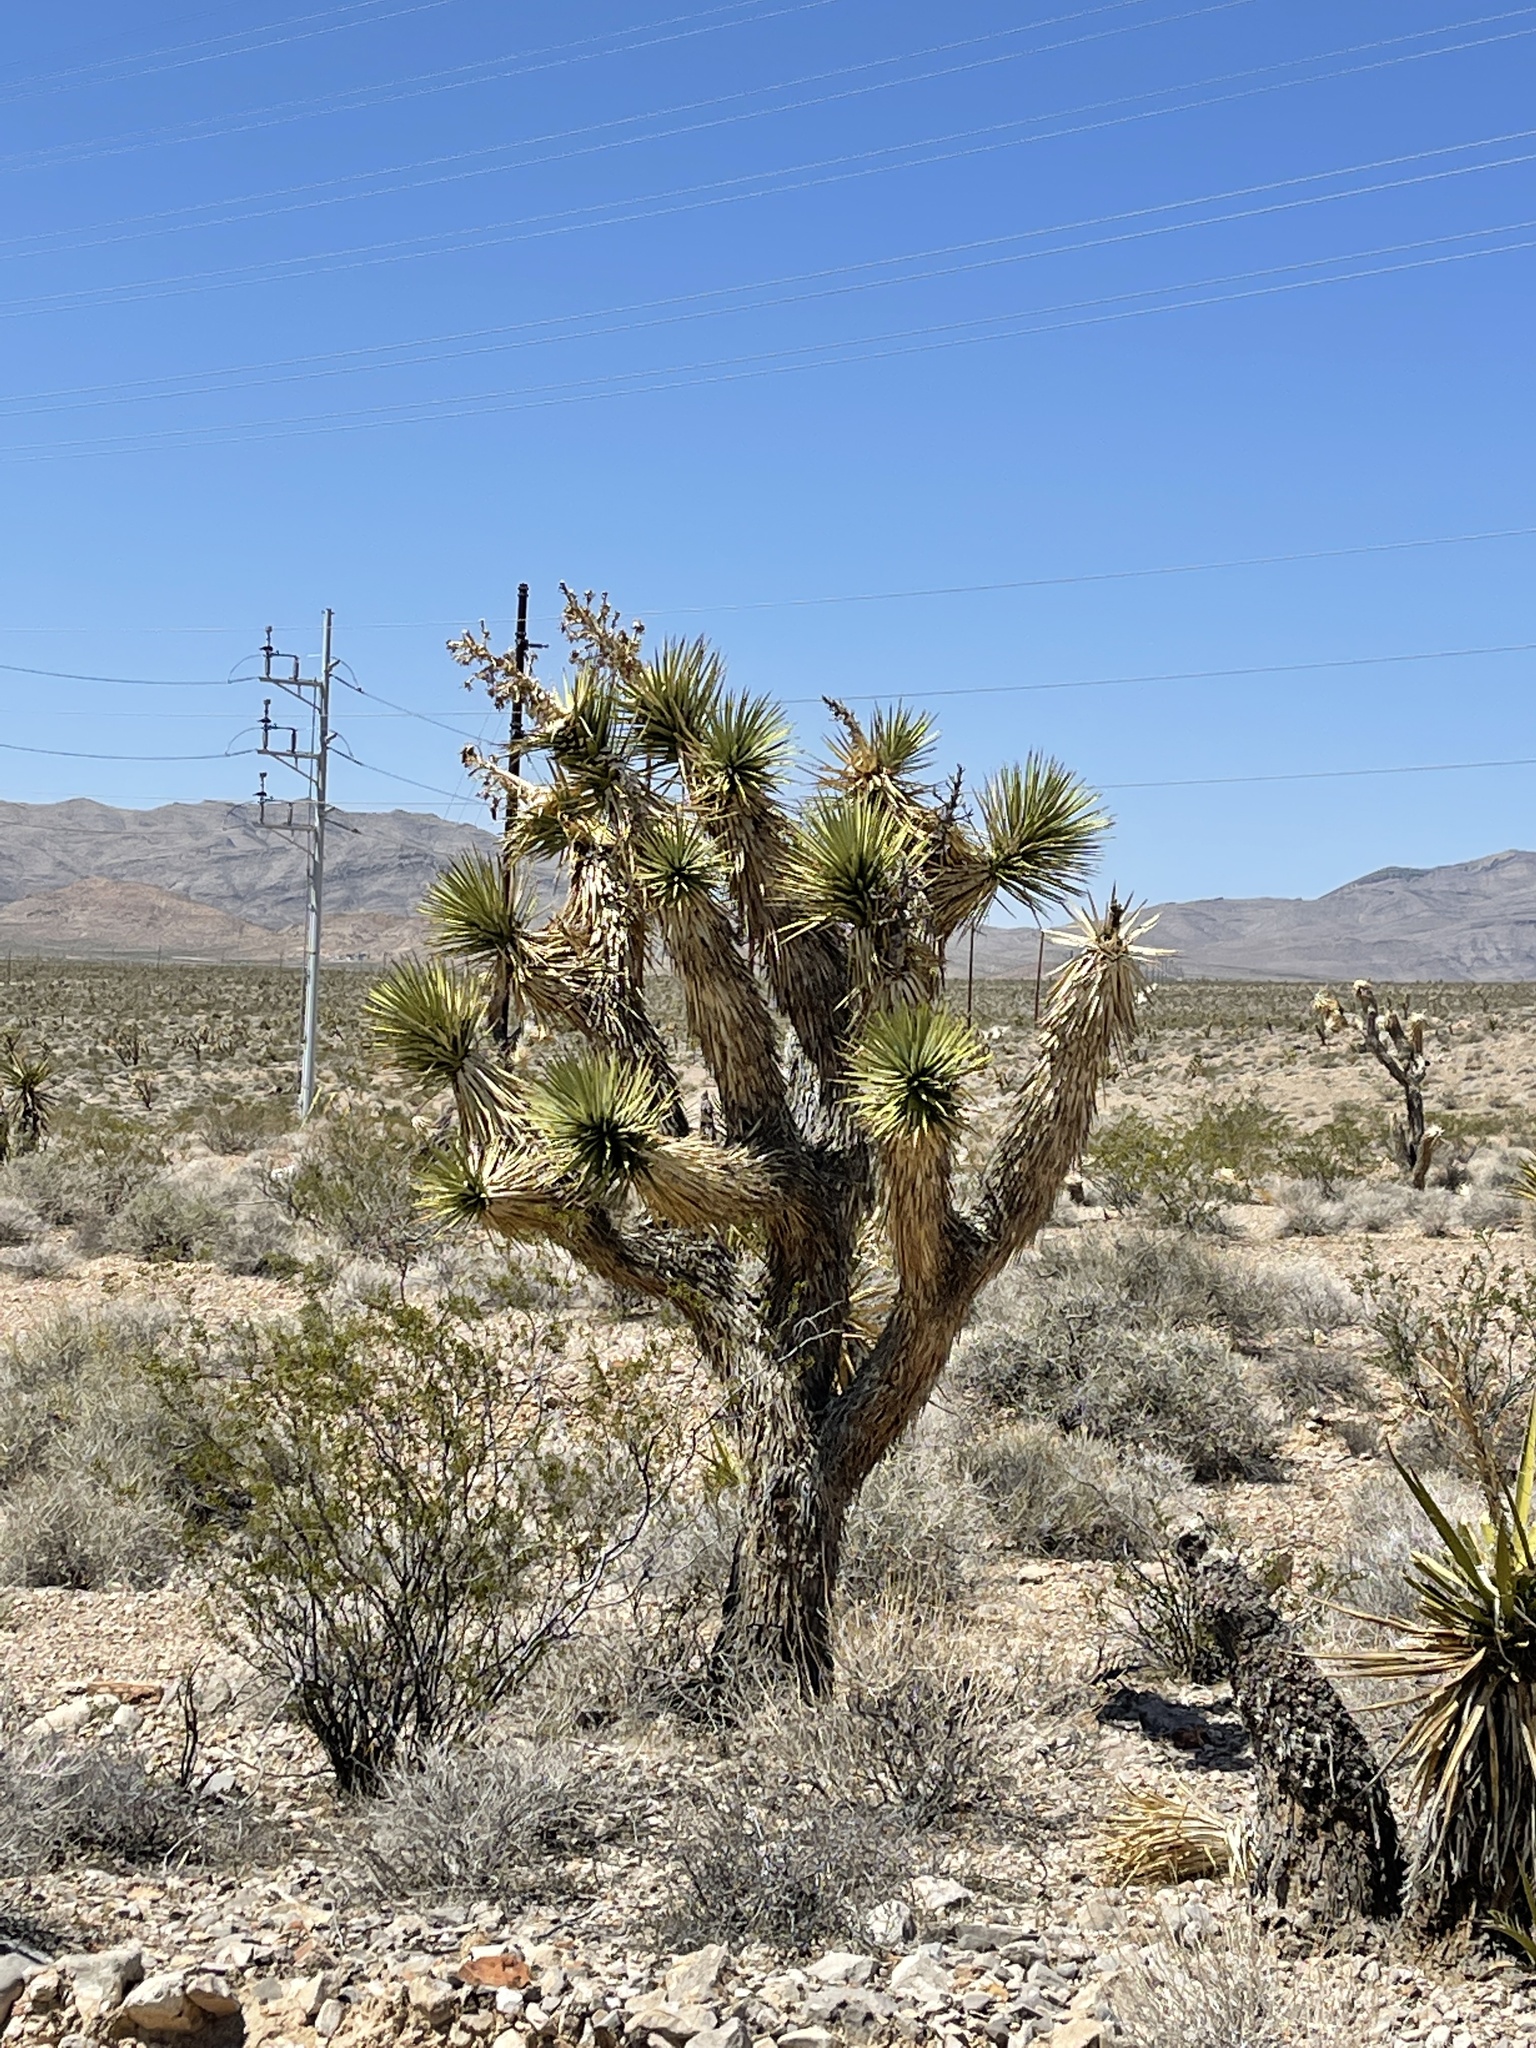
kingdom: Plantae
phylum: Tracheophyta
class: Liliopsida
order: Asparagales
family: Asparagaceae
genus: Yucca
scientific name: Yucca brevifolia
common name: Joshua tree
